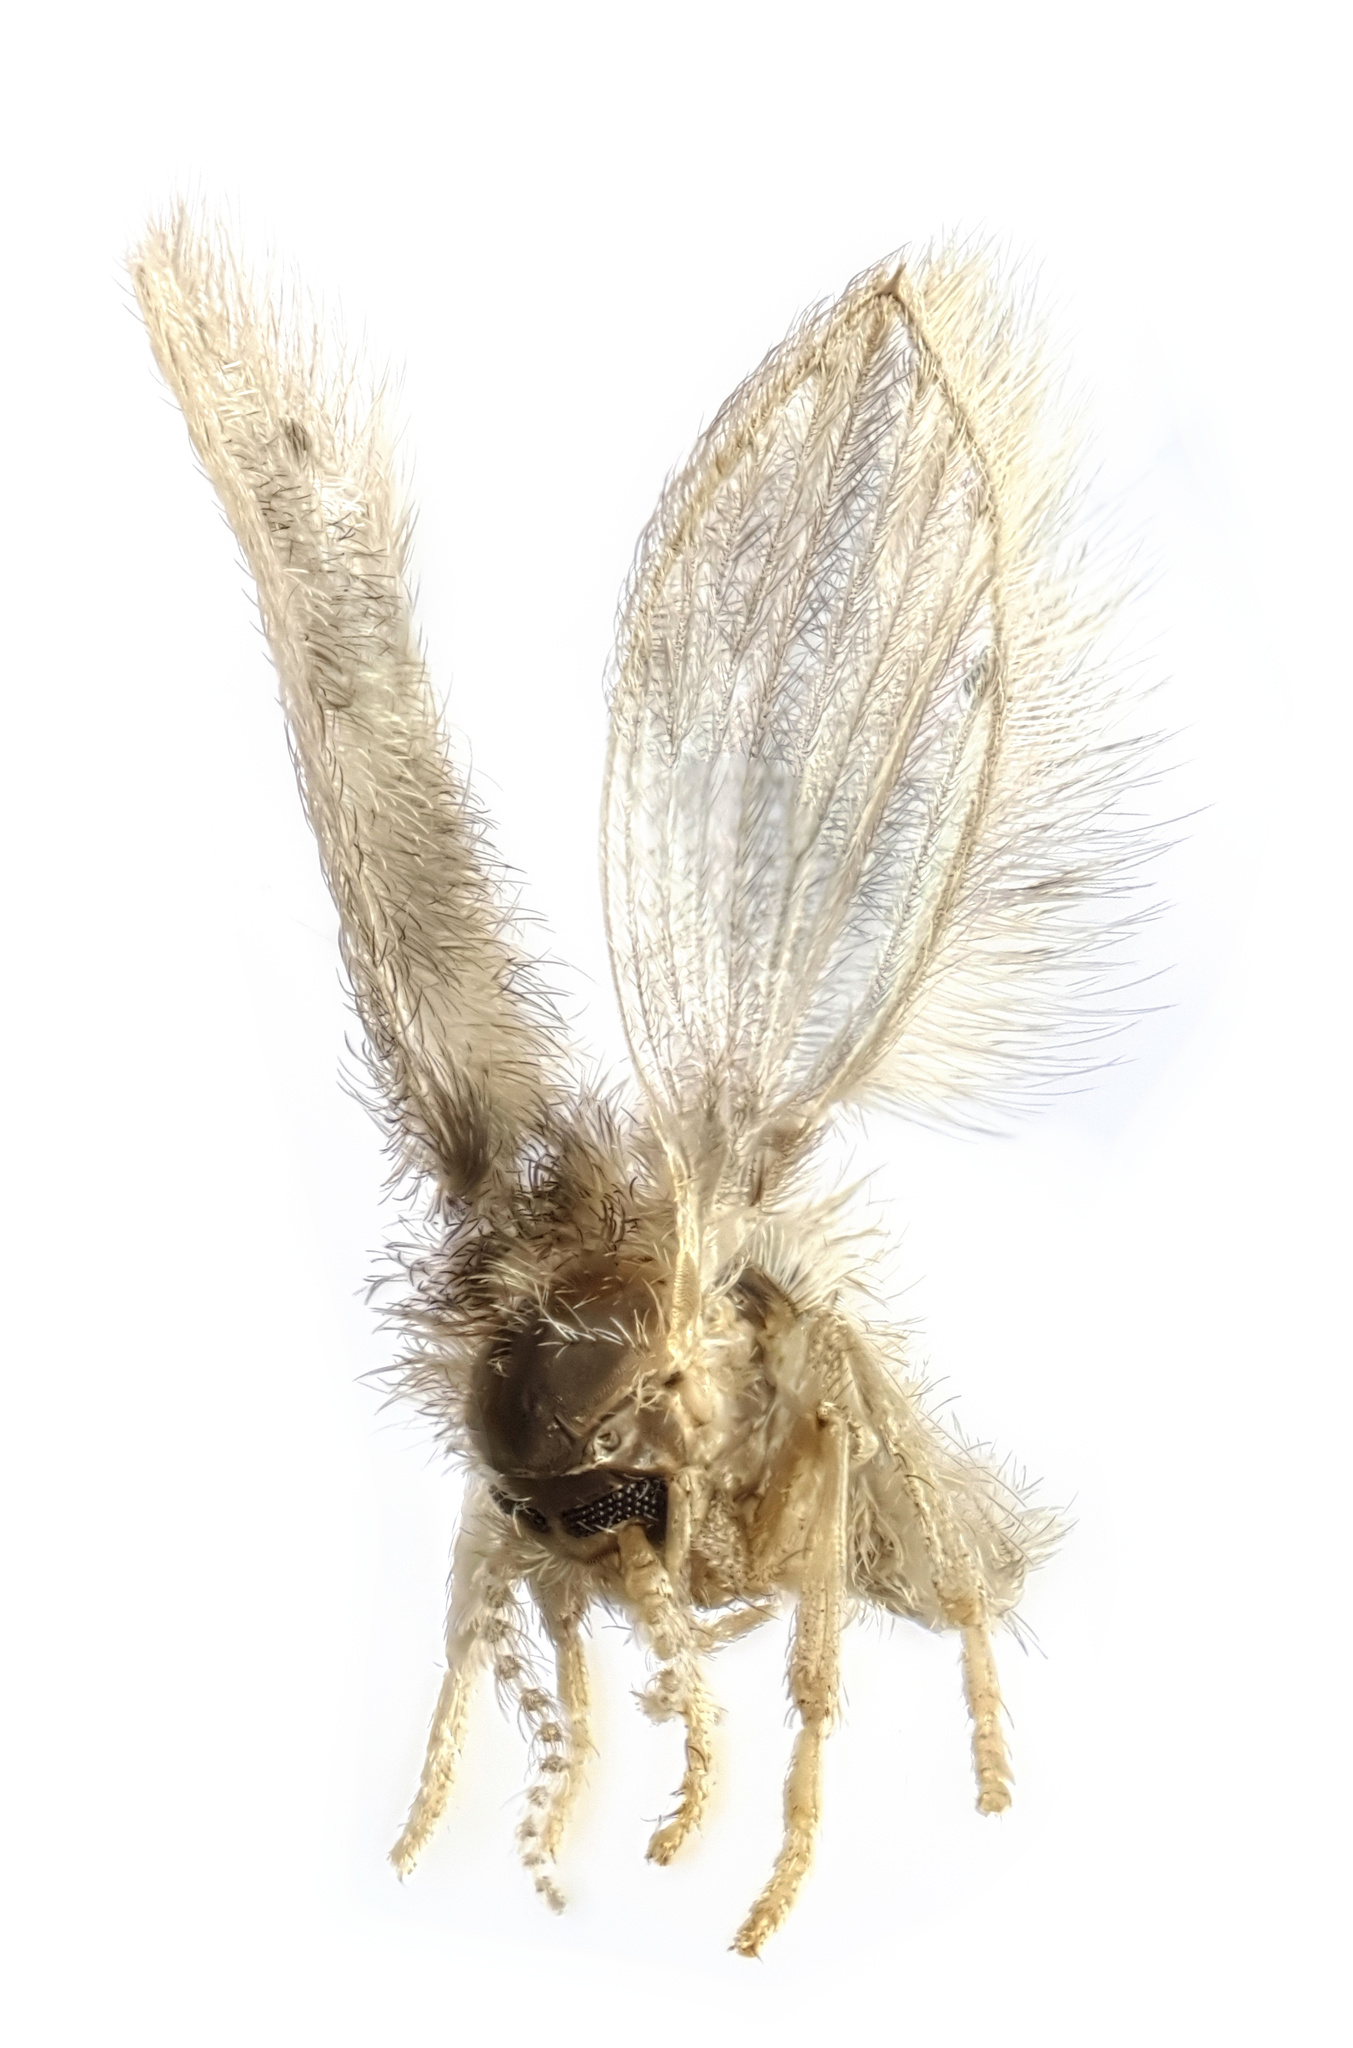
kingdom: Animalia
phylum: Arthropoda
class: Insecta
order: Diptera
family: Psychodidae
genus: Psychoda
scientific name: Psychoda alternata
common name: Moth fly
